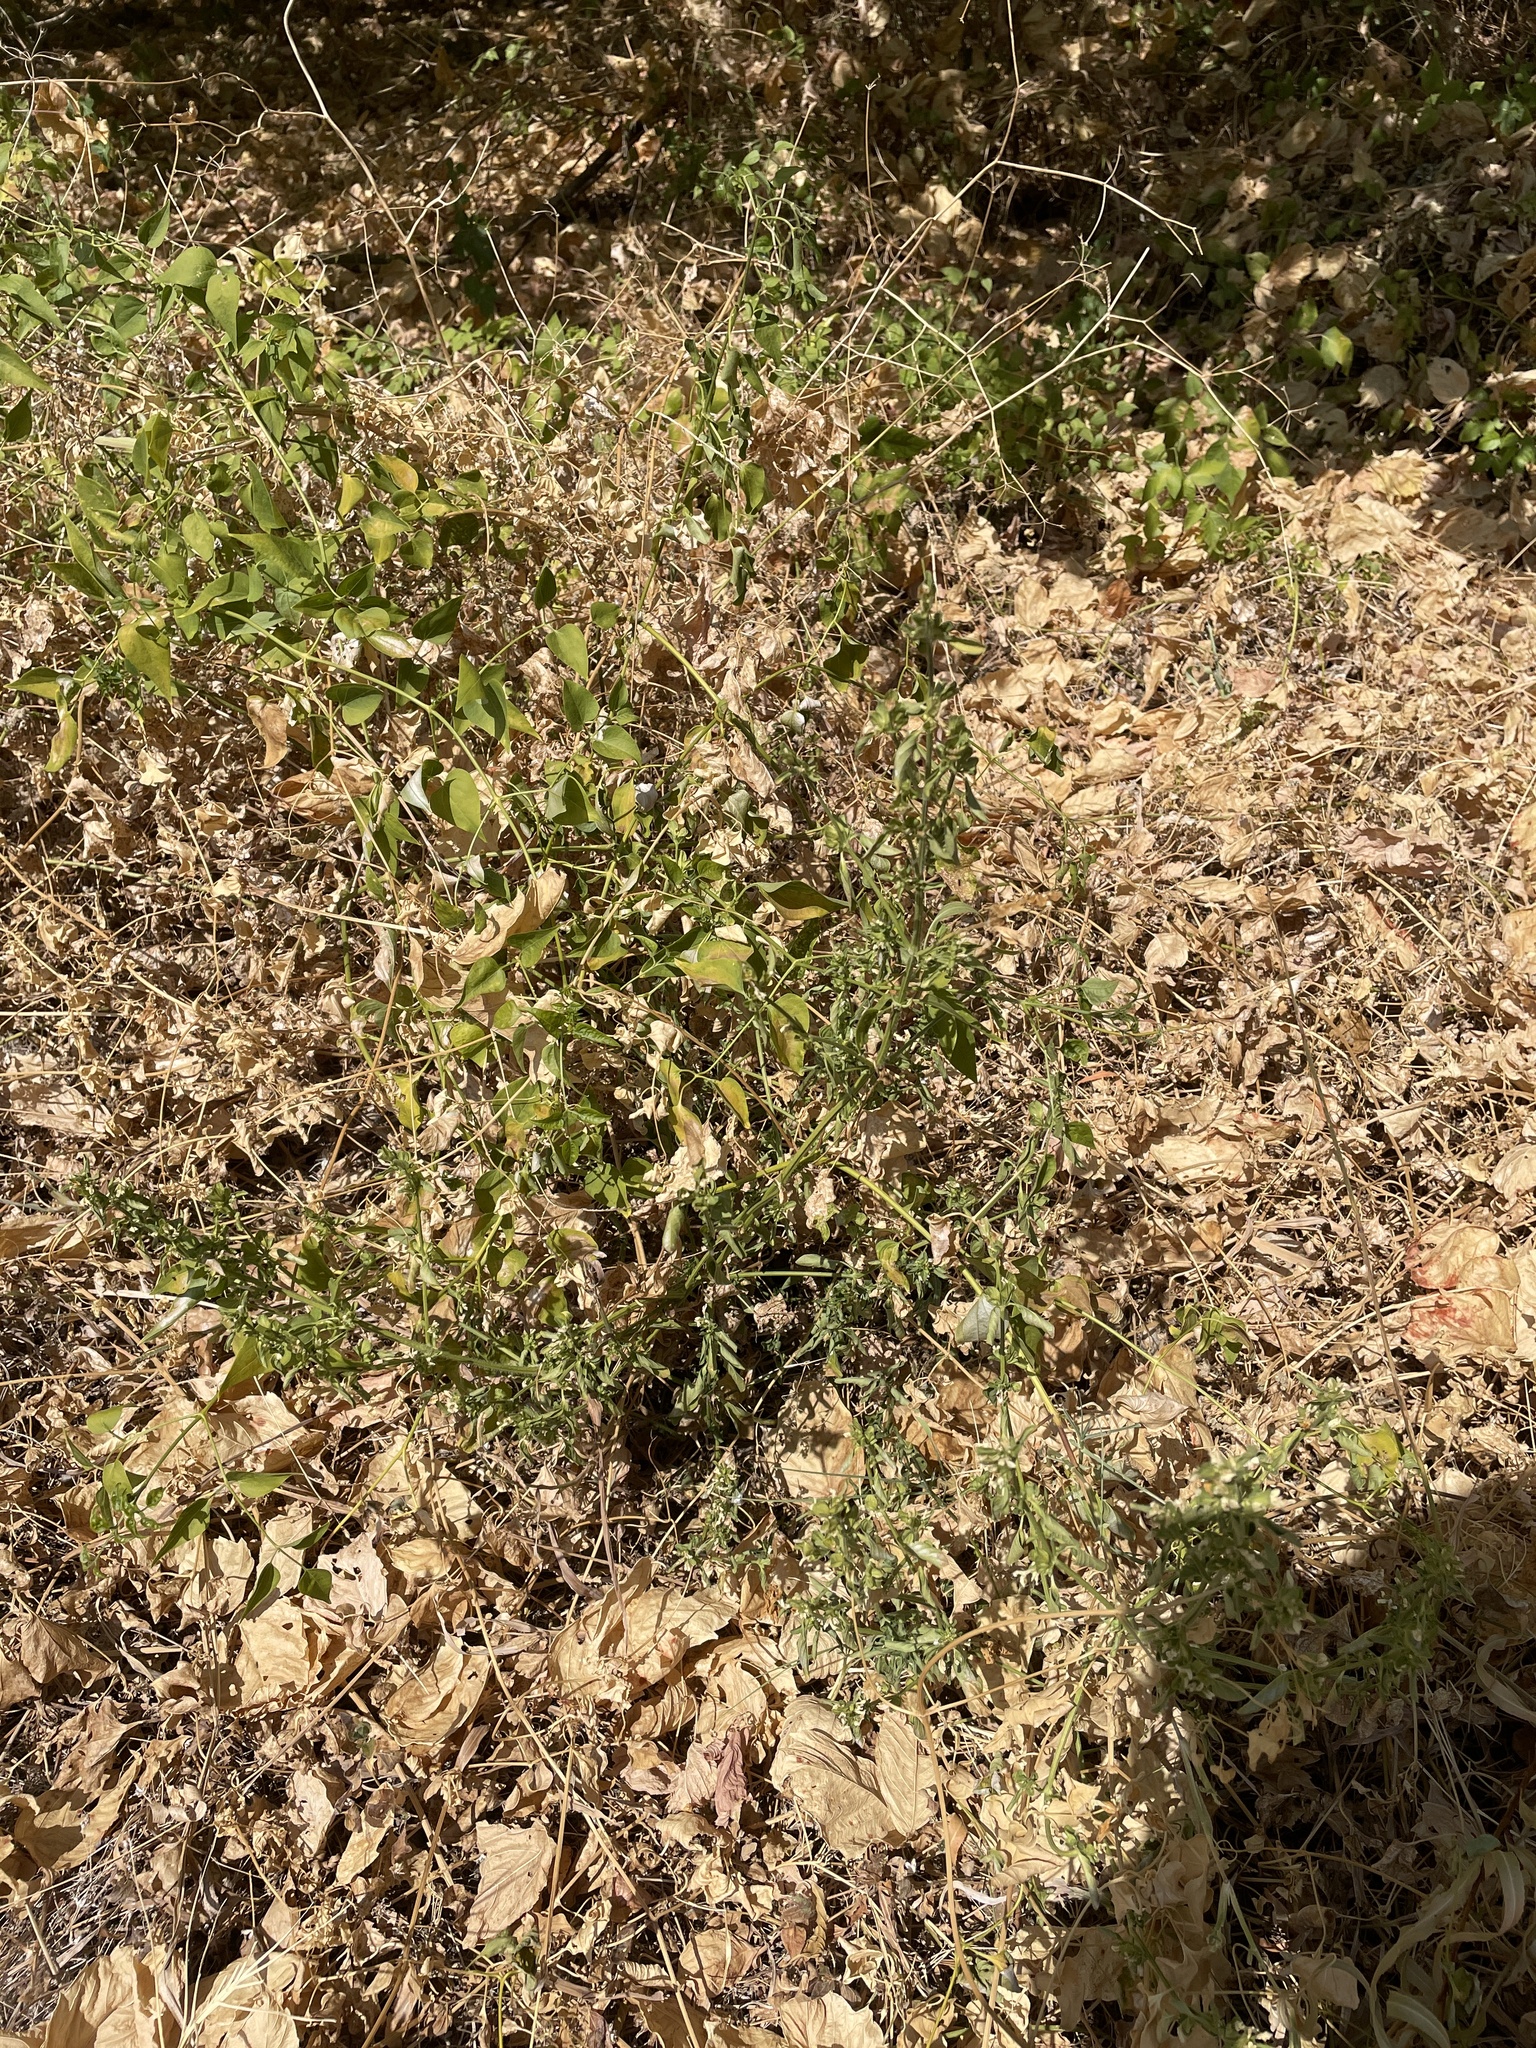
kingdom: Plantae
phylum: Tracheophyta
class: Magnoliopsida
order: Lamiales
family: Acanthaceae
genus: Dicliptera
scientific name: Dicliptera brachiata
